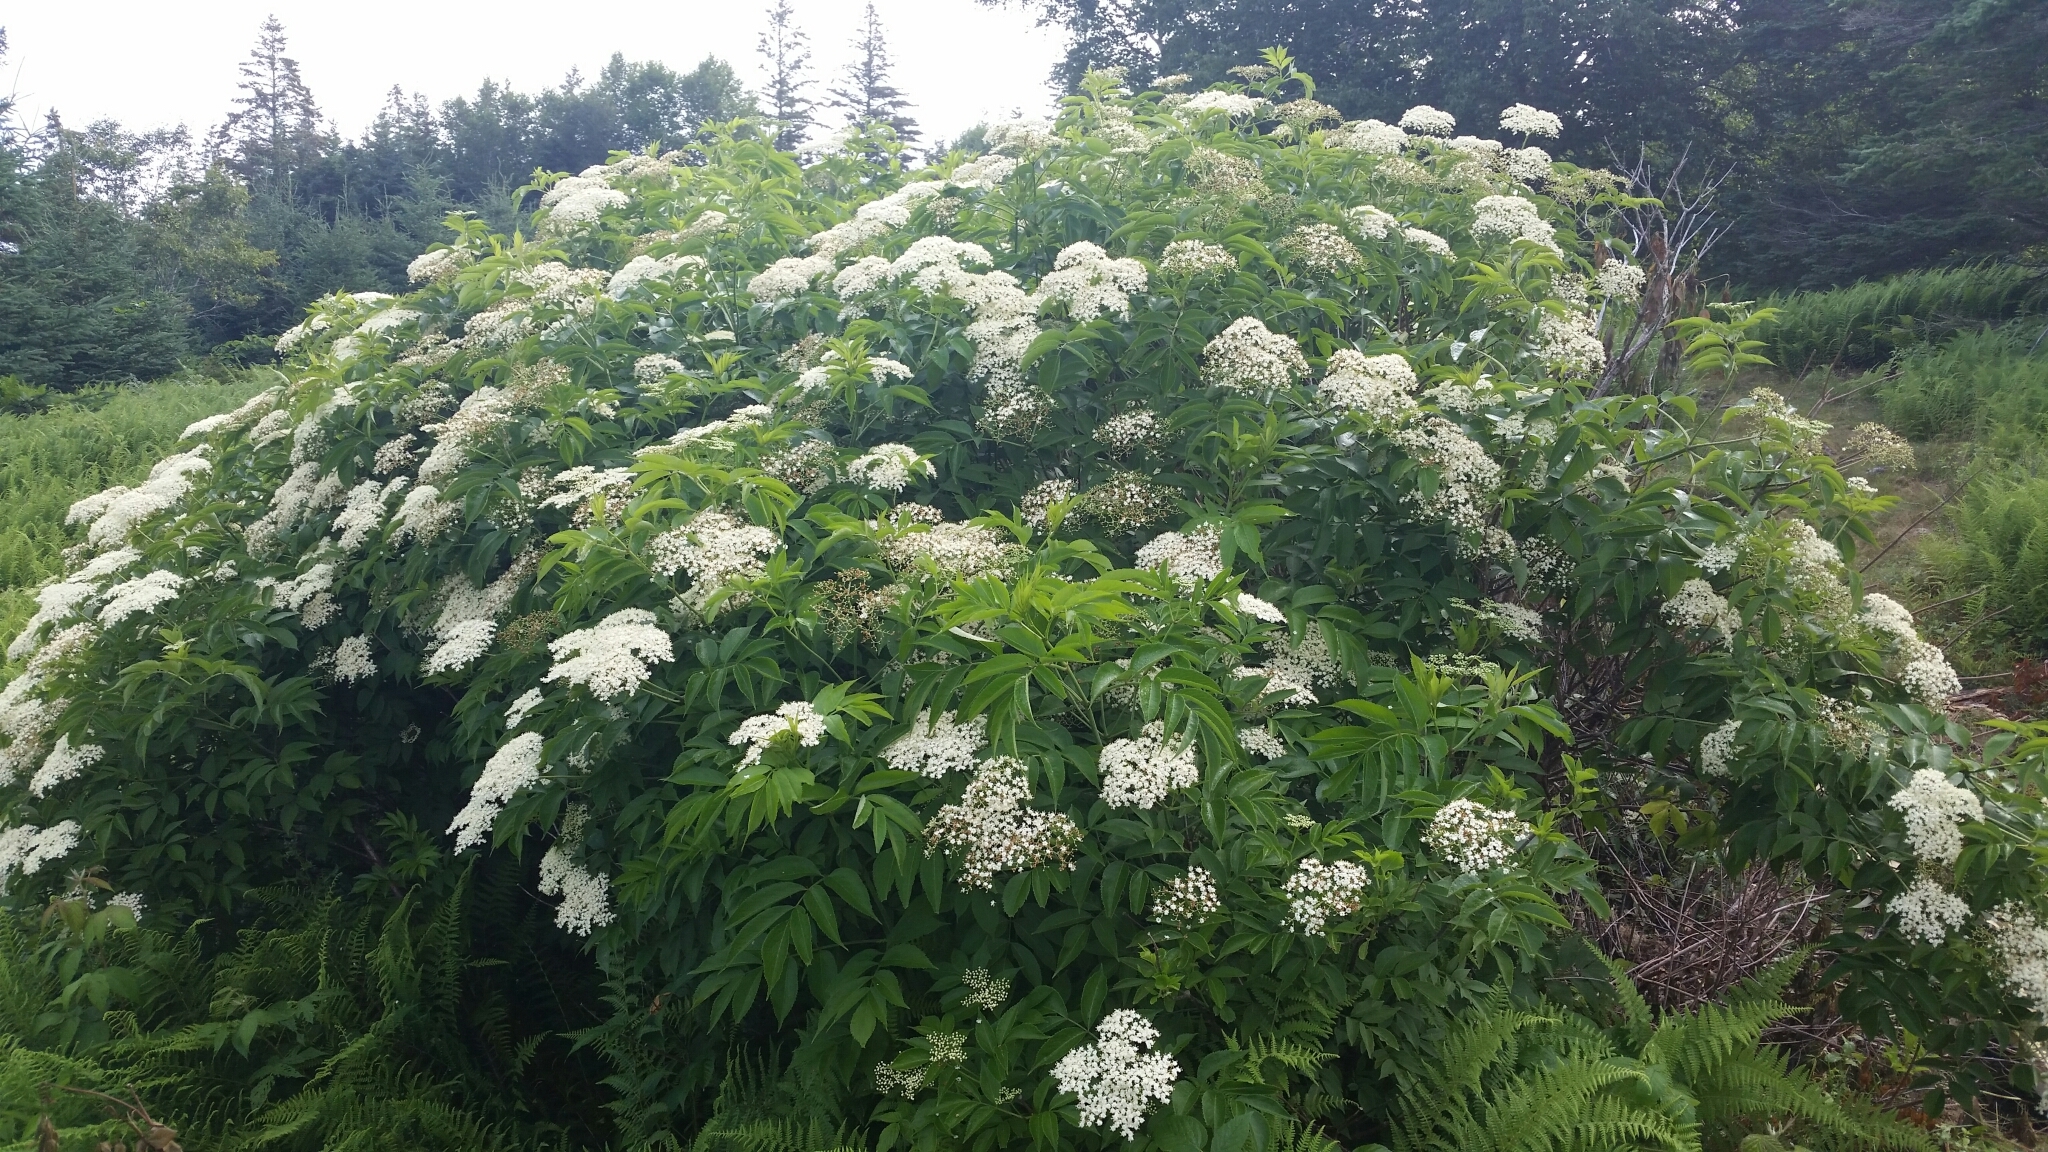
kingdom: Plantae
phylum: Tracheophyta
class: Magnoliopsida
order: Dipsacales
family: Viburnaceae
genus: Sambucus
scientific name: Sambucus canadensis
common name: American elder
